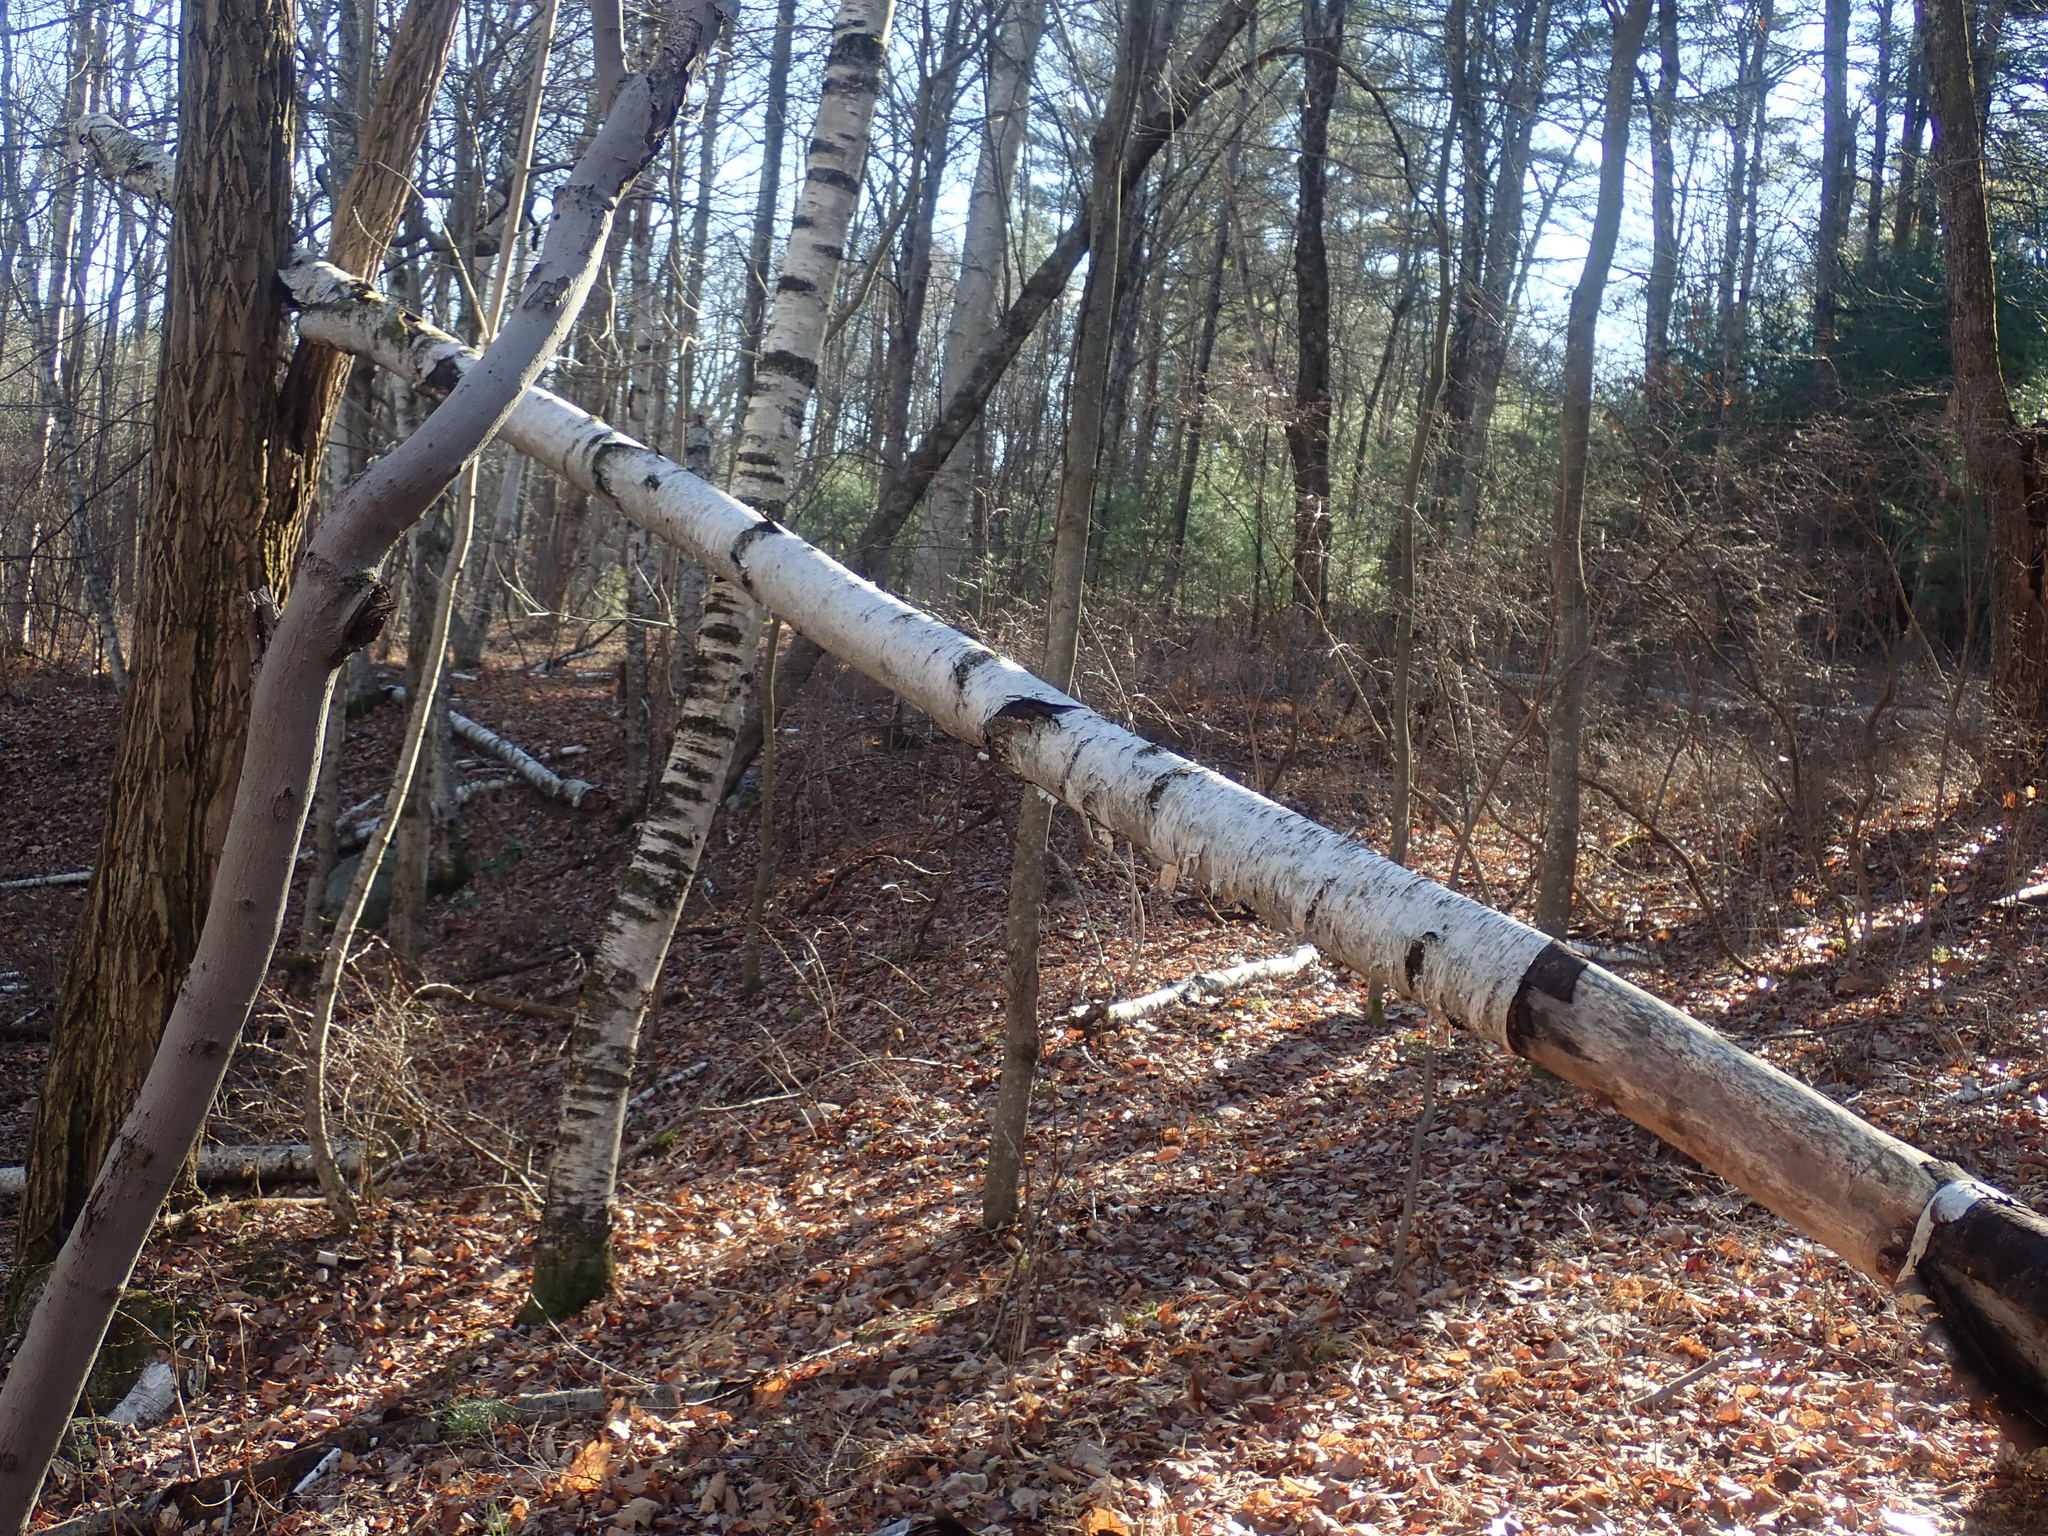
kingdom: Plantae
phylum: Tracheophyta
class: Magnoliopsida
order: Fagales
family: Betulaceae
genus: Betula
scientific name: Betula papyrifera
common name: Paper birch
